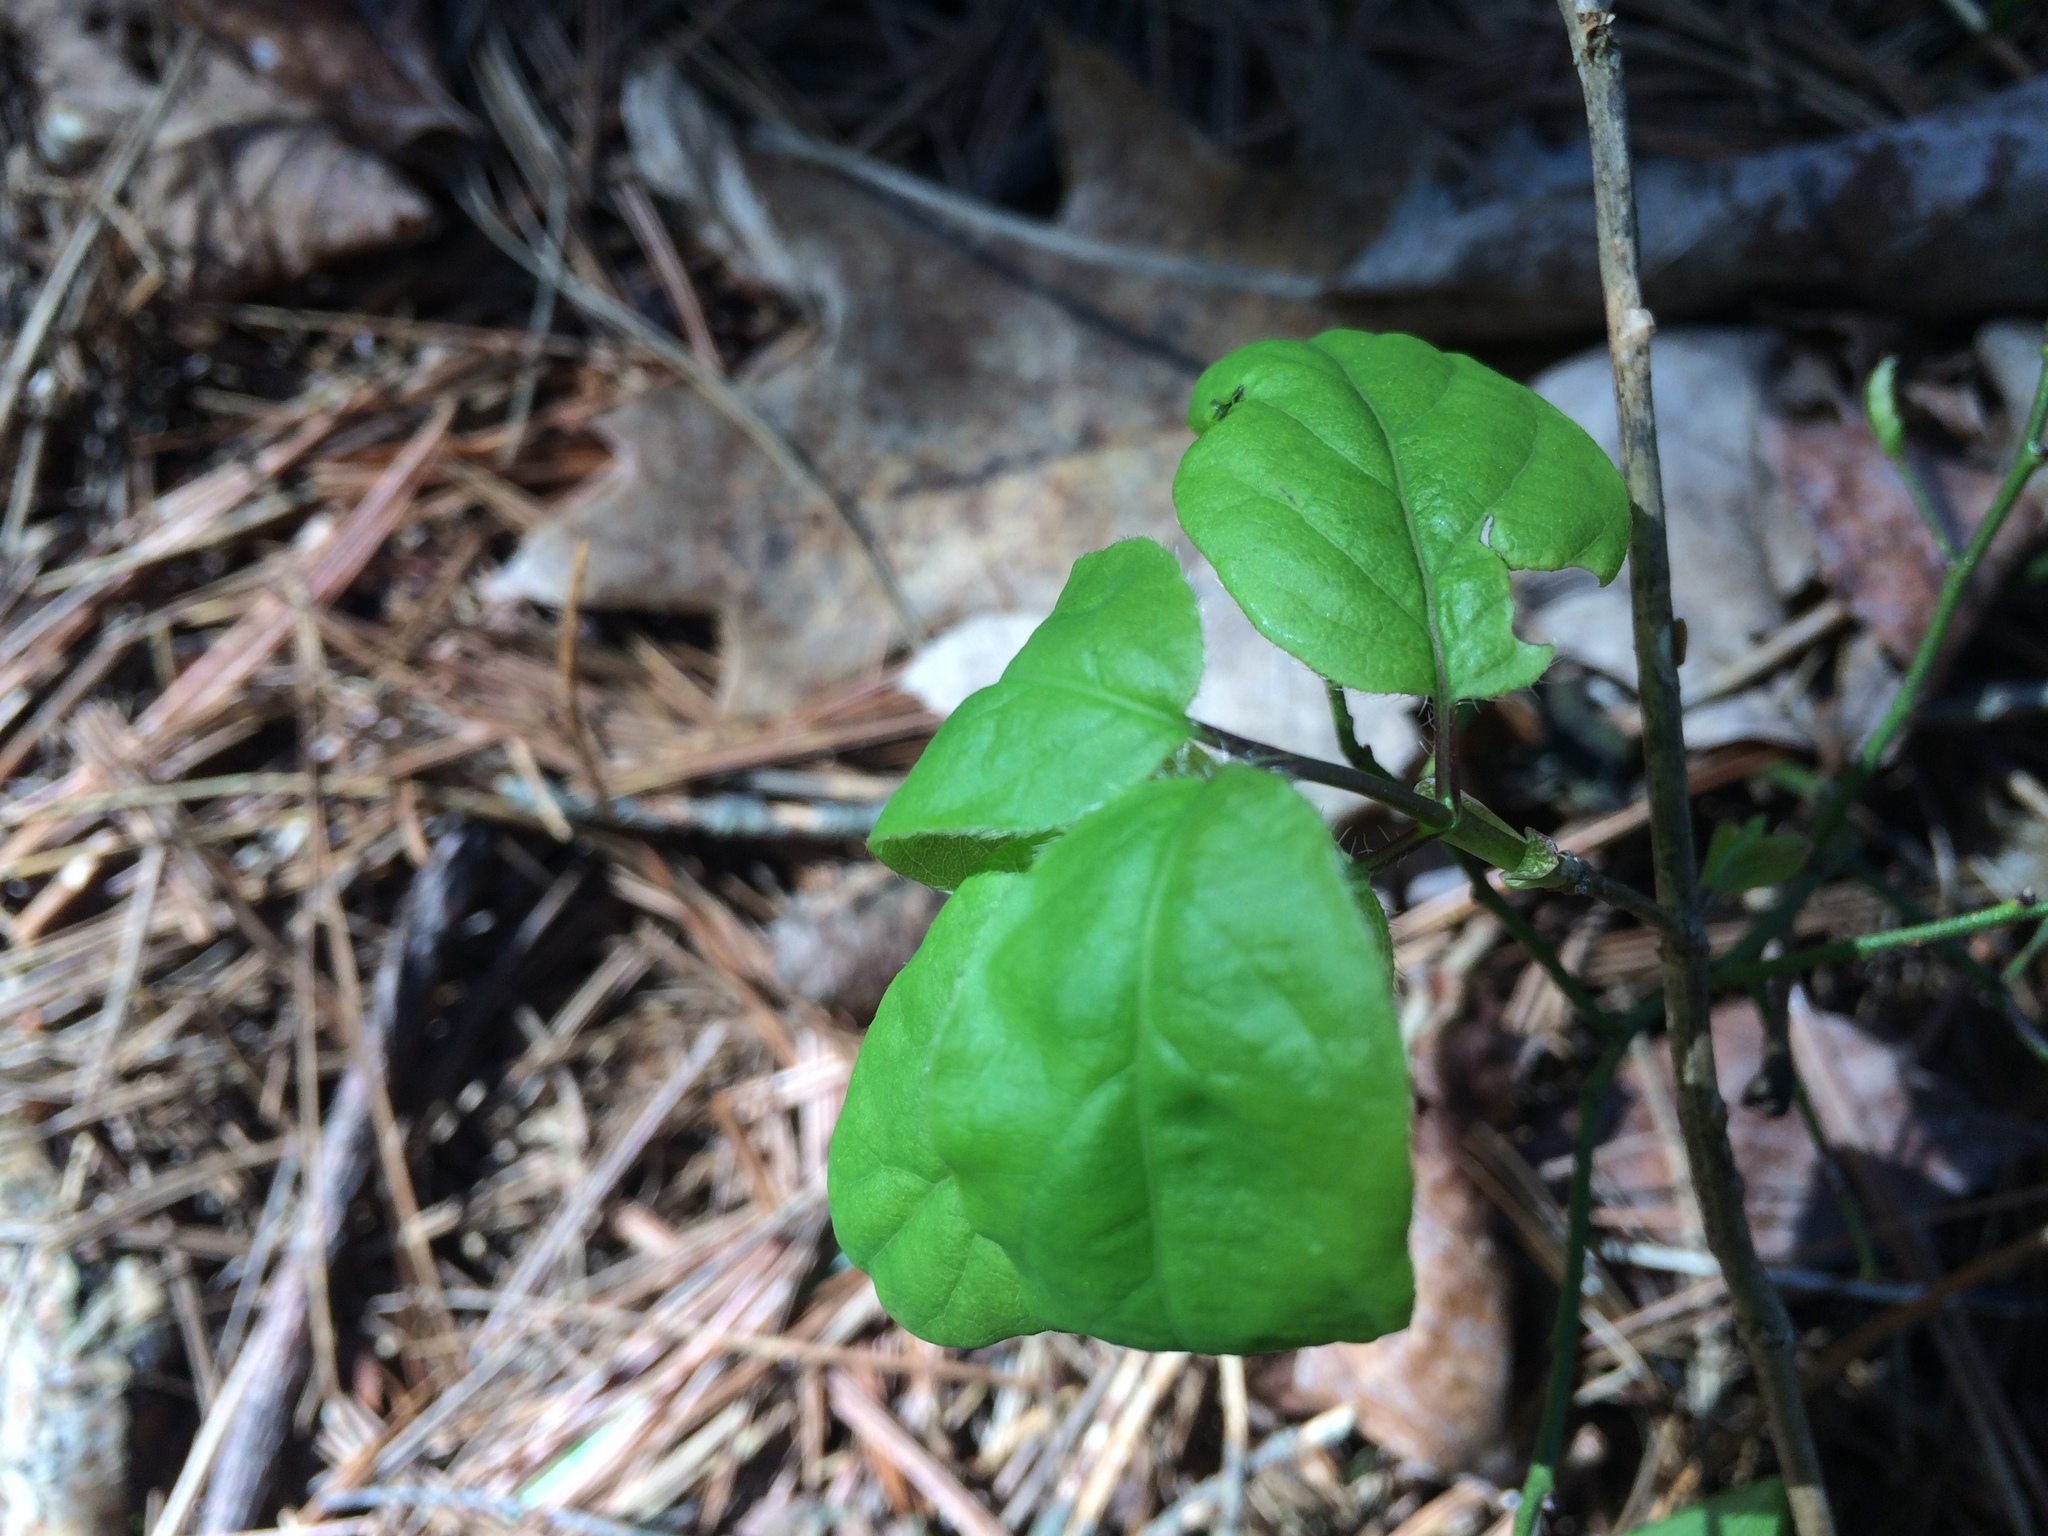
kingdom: Plantae
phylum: Tracheophyta
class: Magnoliopsida
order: Dipsacales
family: Caprifoliaceae
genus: Lonicera
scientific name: Lonicera canadensis
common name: American fly-honeysuckle
